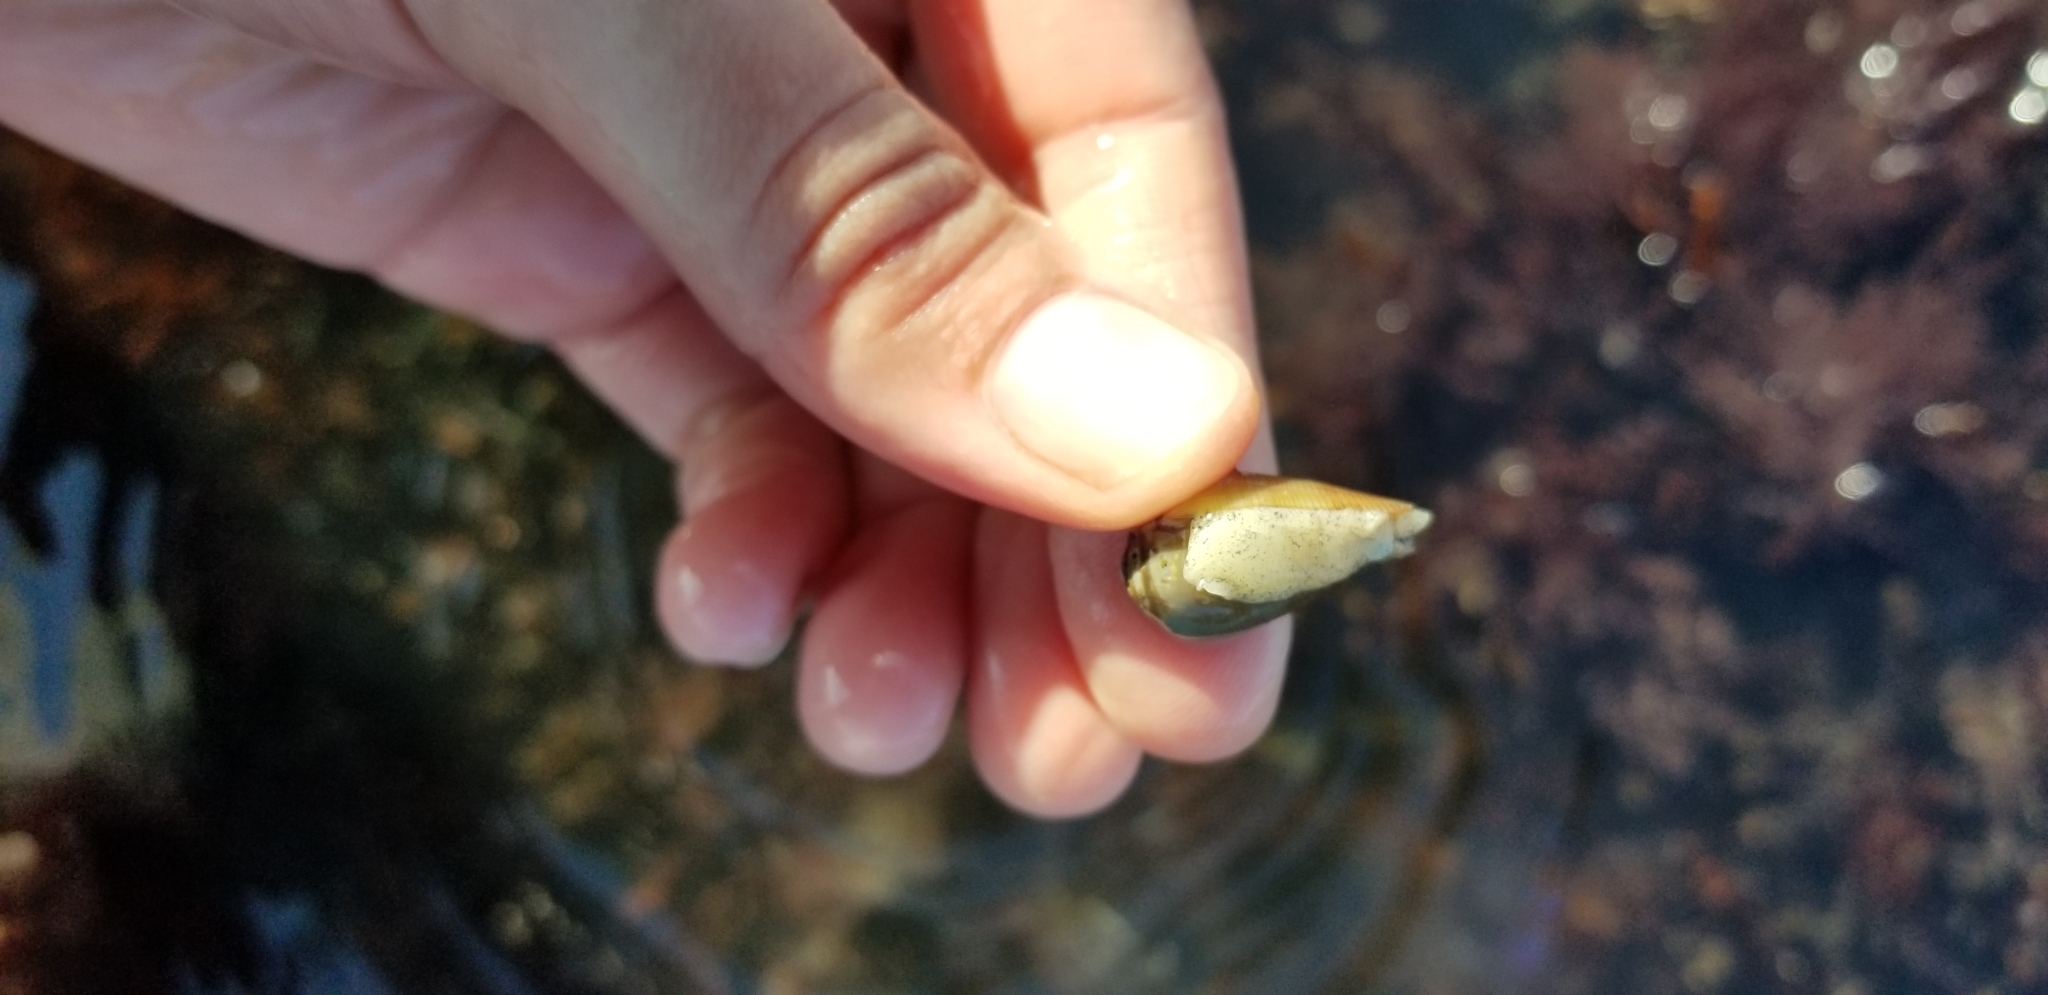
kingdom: Animalia
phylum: Mollusca
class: Gastropoda
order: Neogastropoda
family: Conidae
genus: Californiconus
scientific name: Californiconus californicus
